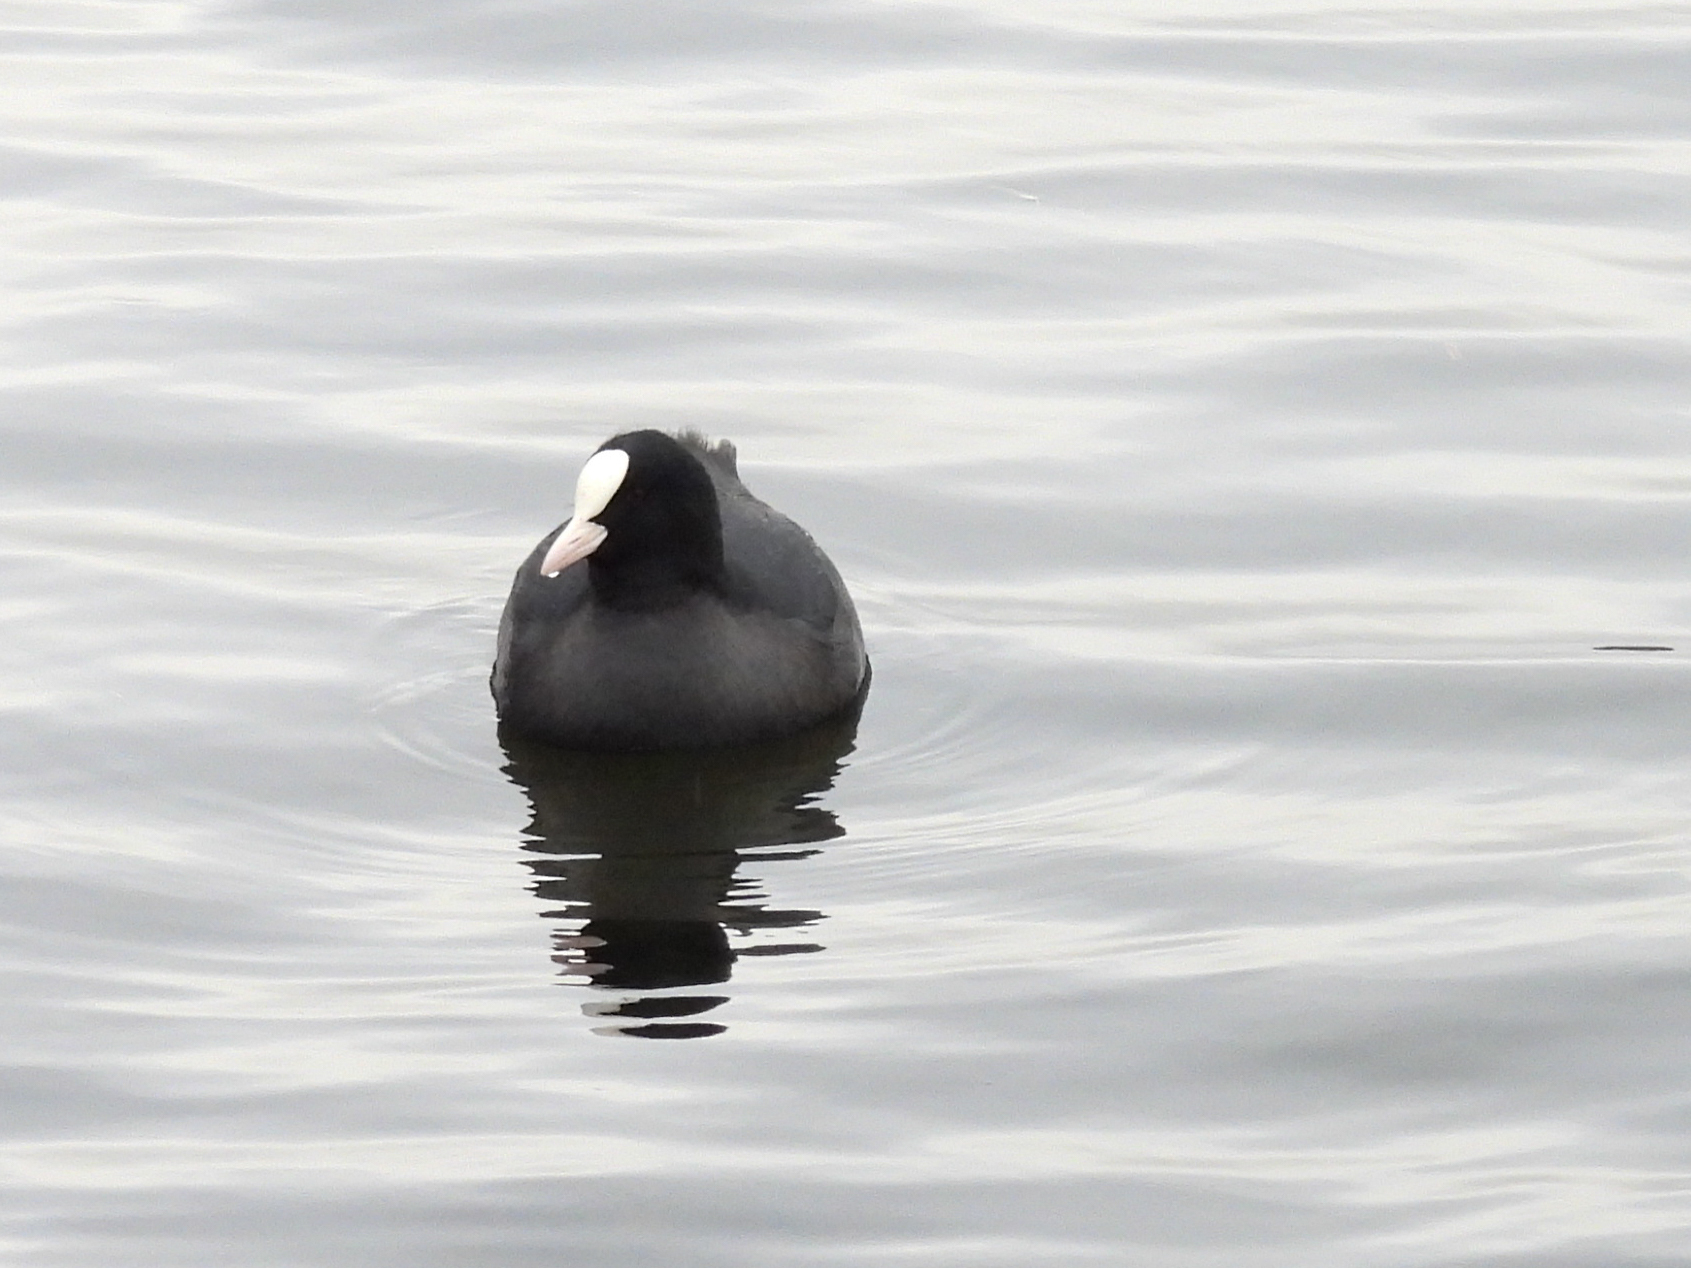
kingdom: Animalia
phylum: Chordata
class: Aves
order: Gruiformes
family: Rallidae
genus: Fulica
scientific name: Fulica atra
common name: Eurasian coot
